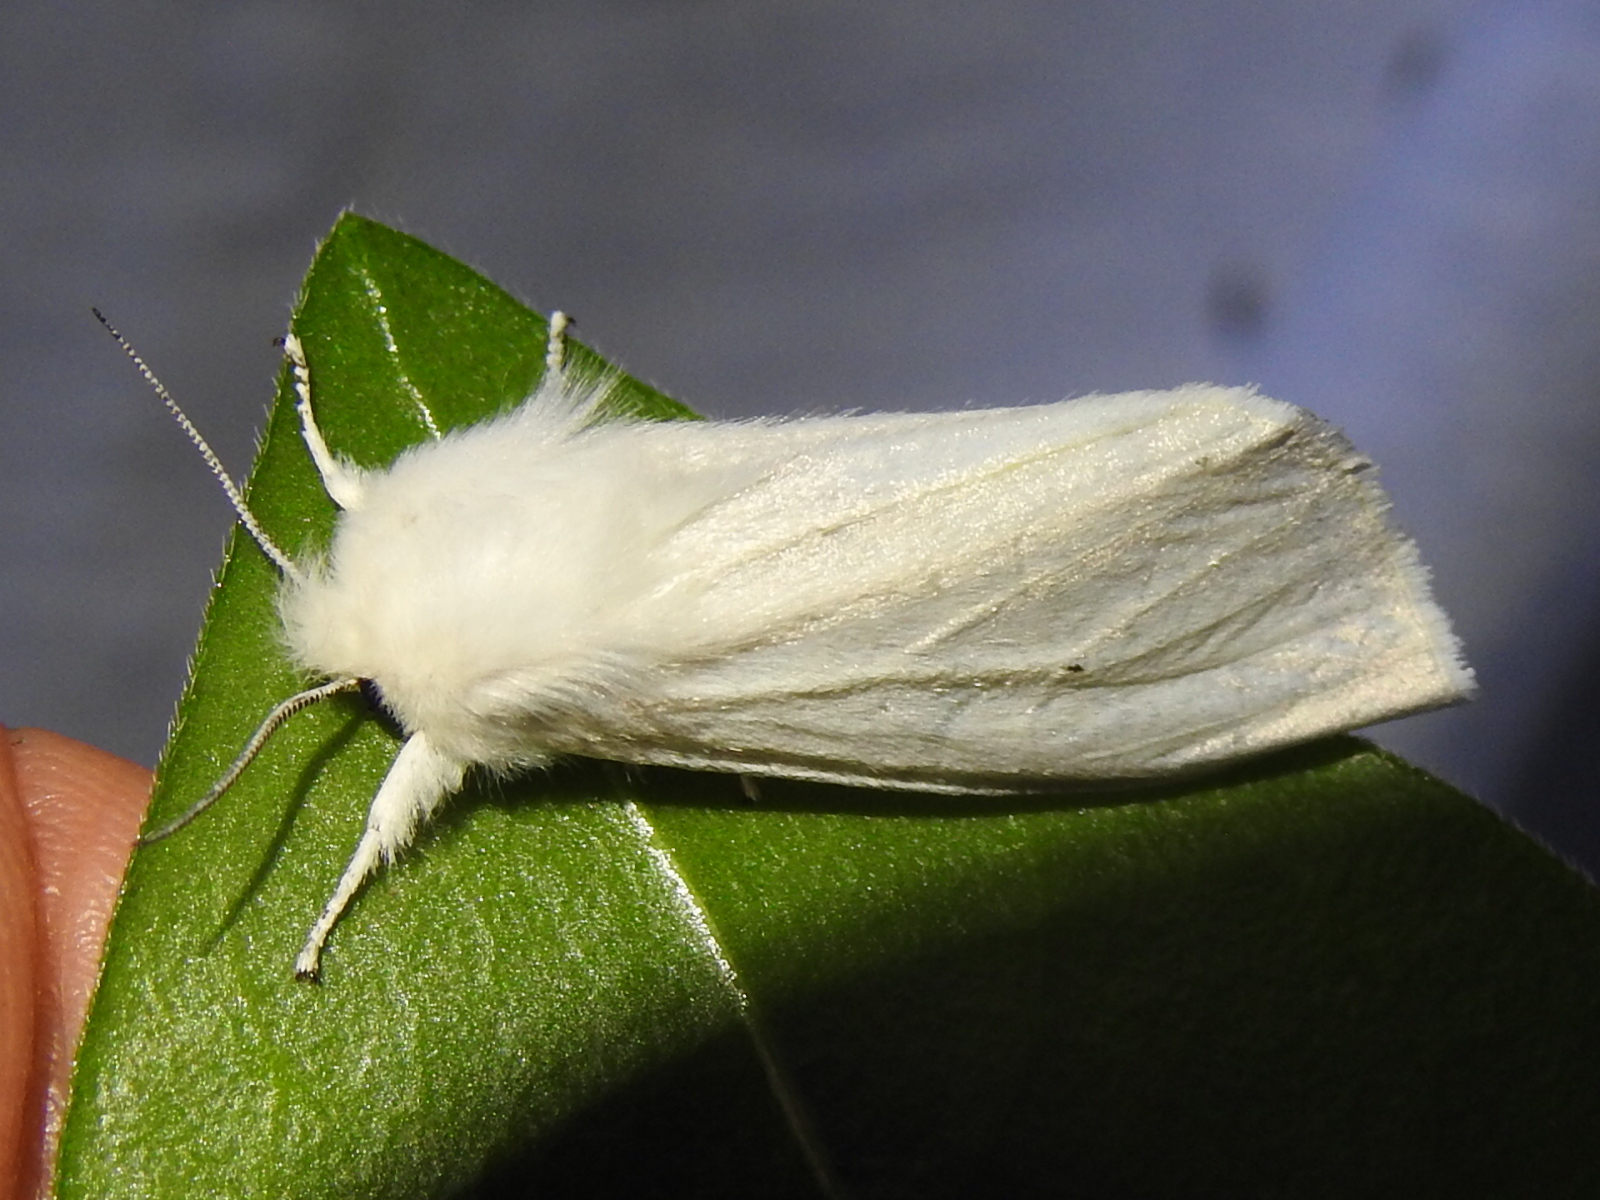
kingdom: Animalia
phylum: Arthropoda
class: Insecta
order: Lepidoptera
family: Erebidae
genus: Spilosoma
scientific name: Spilosoma virginica
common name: Virginia tiger moth
